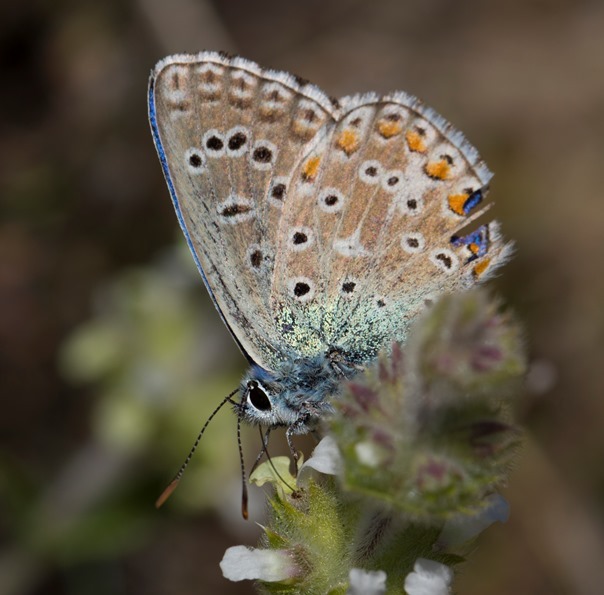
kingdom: Animalia
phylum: Arthropoda
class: Insecta
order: Lepidoptera
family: Lycaenidae
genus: Lysandra
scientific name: Lysandra bellargus
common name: Adonis blue
